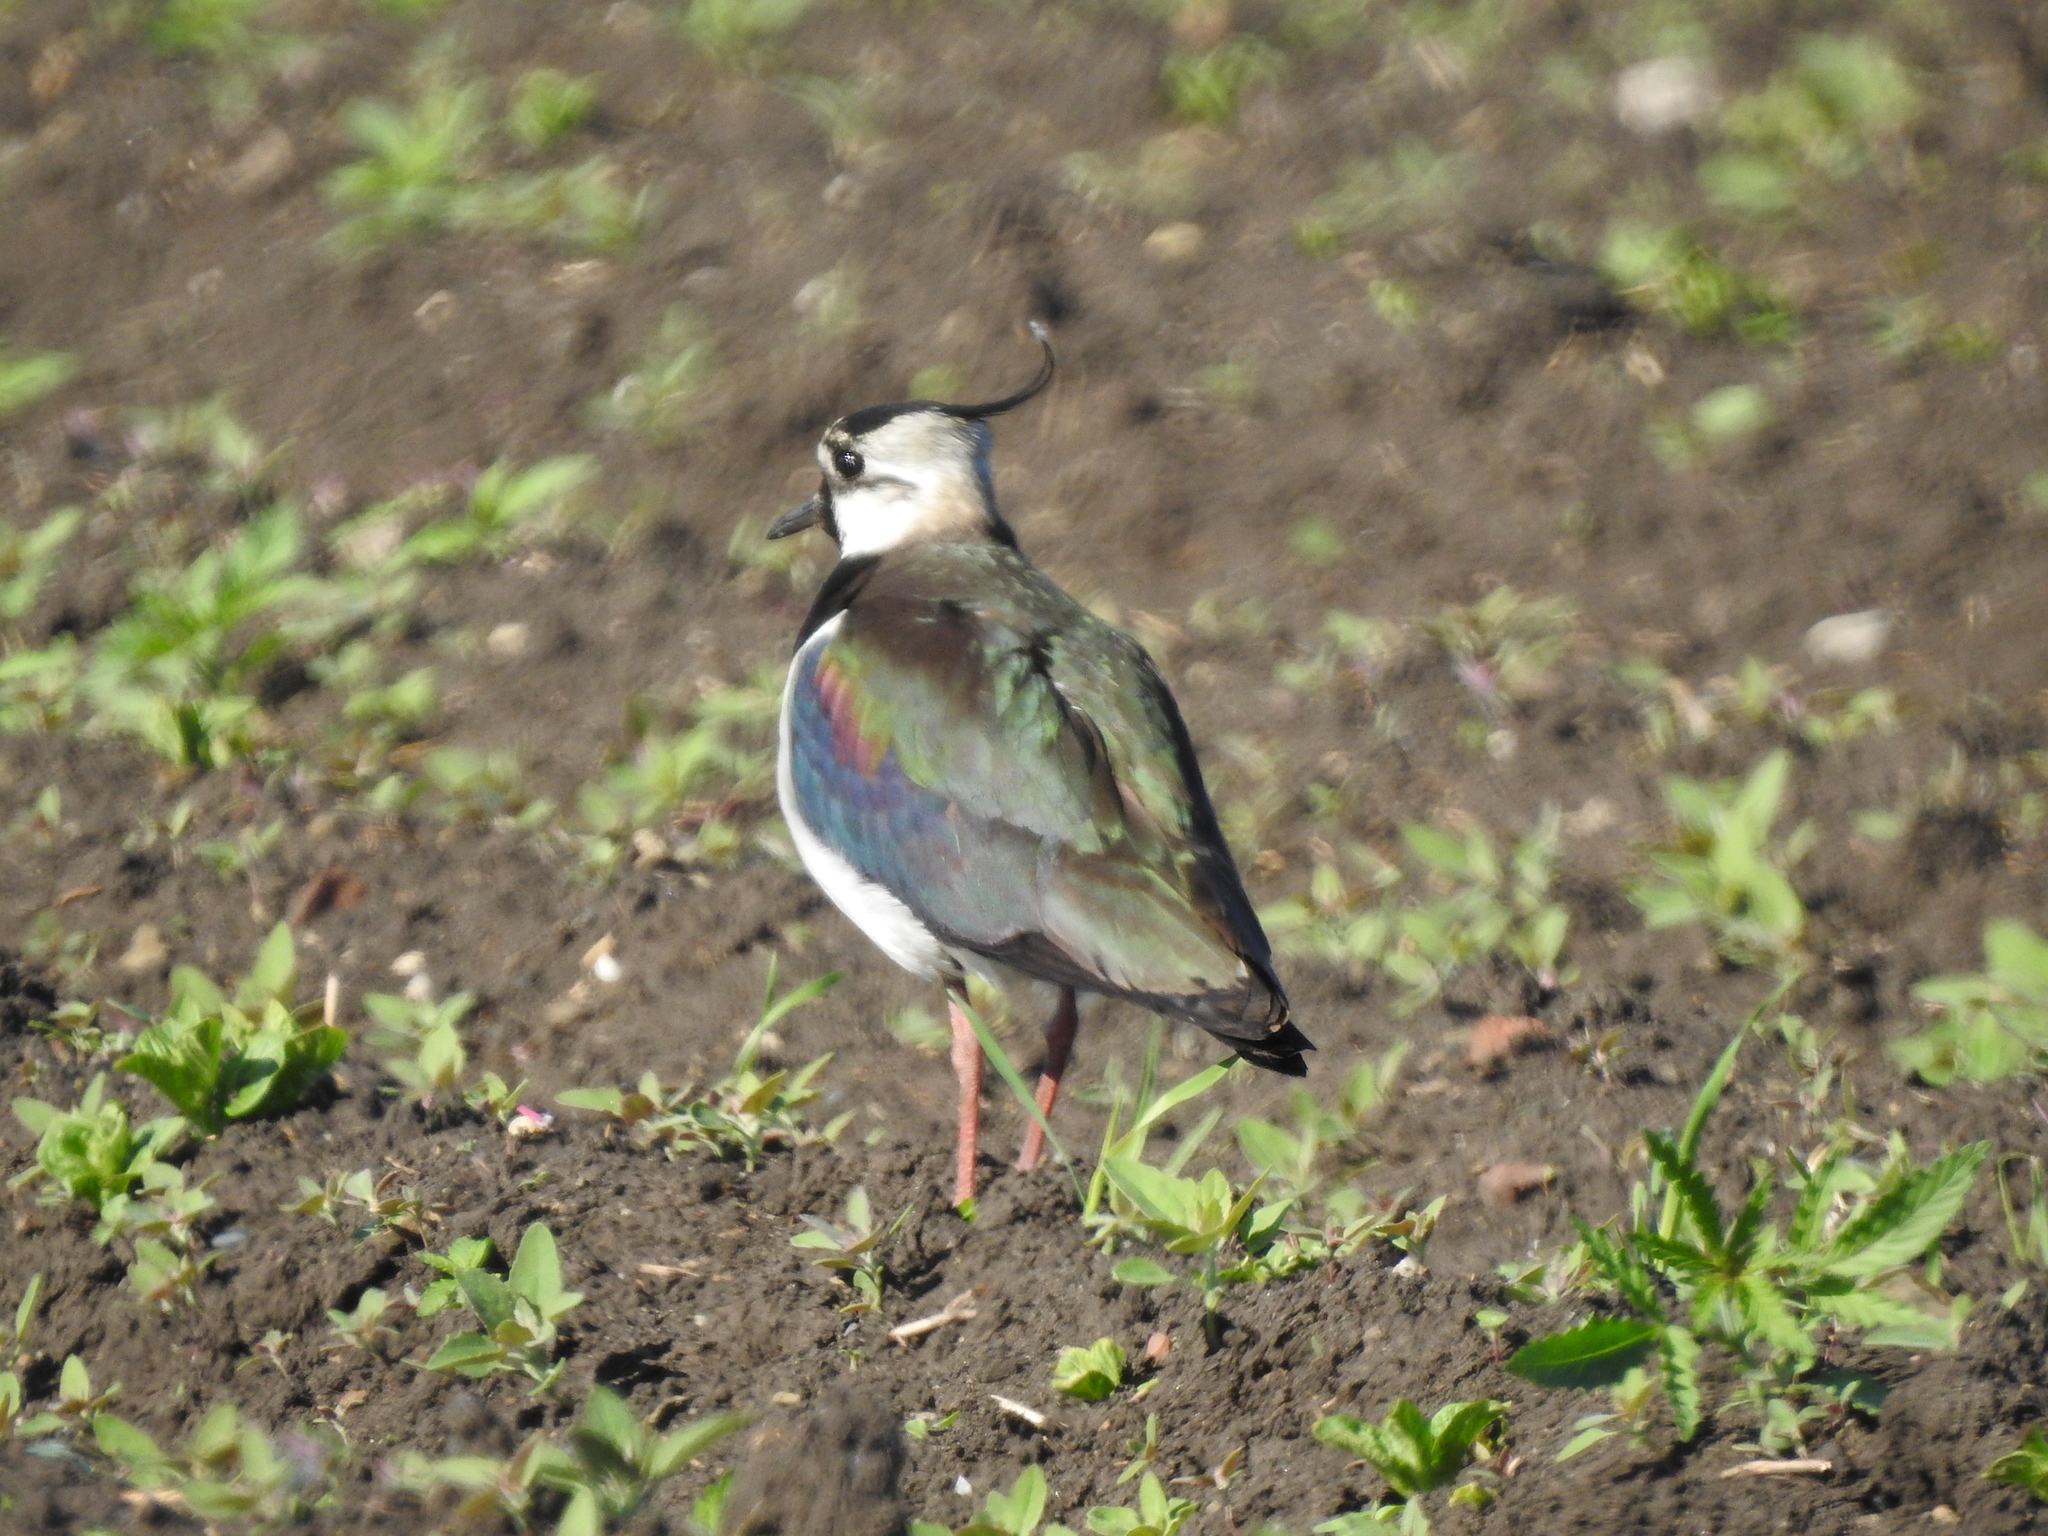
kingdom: Animalia
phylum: Chordata
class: Aves
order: Charadriiformes
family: Charadriidae
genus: Vanellus
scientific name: Vanellus vanellus
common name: Northern lapwing
